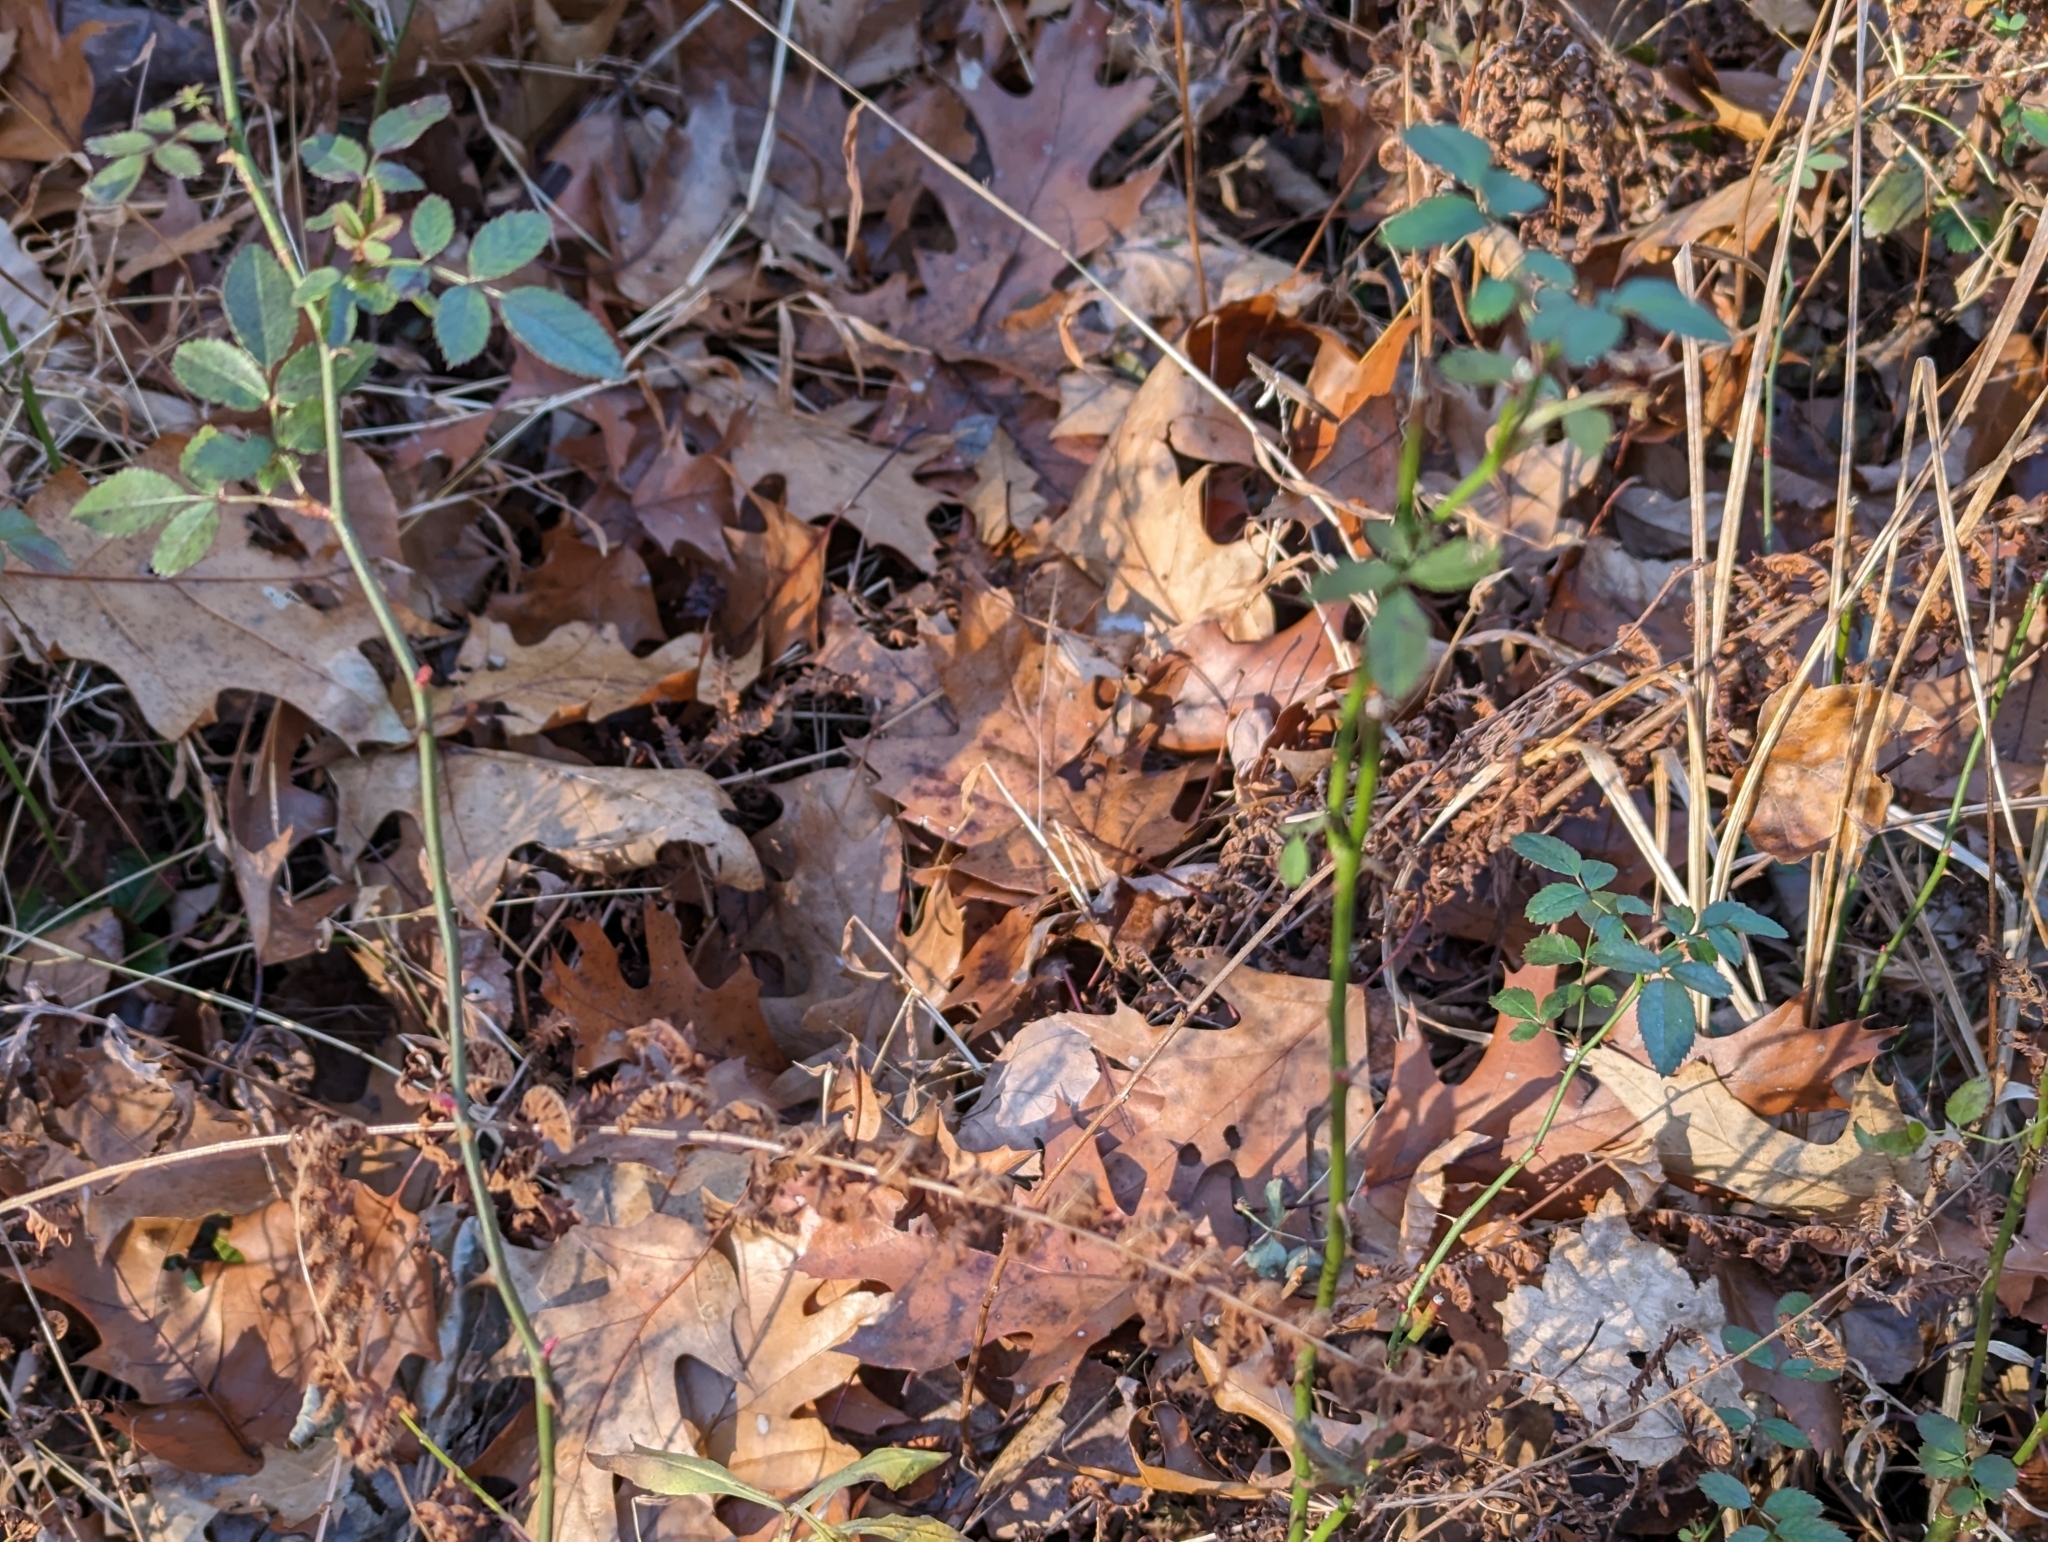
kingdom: Plantae
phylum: Tracheophyta
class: Magnoliopsida
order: Rosales
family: Rosaceae
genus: Rosa
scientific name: Rosa multiflora
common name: Multiflora rose
